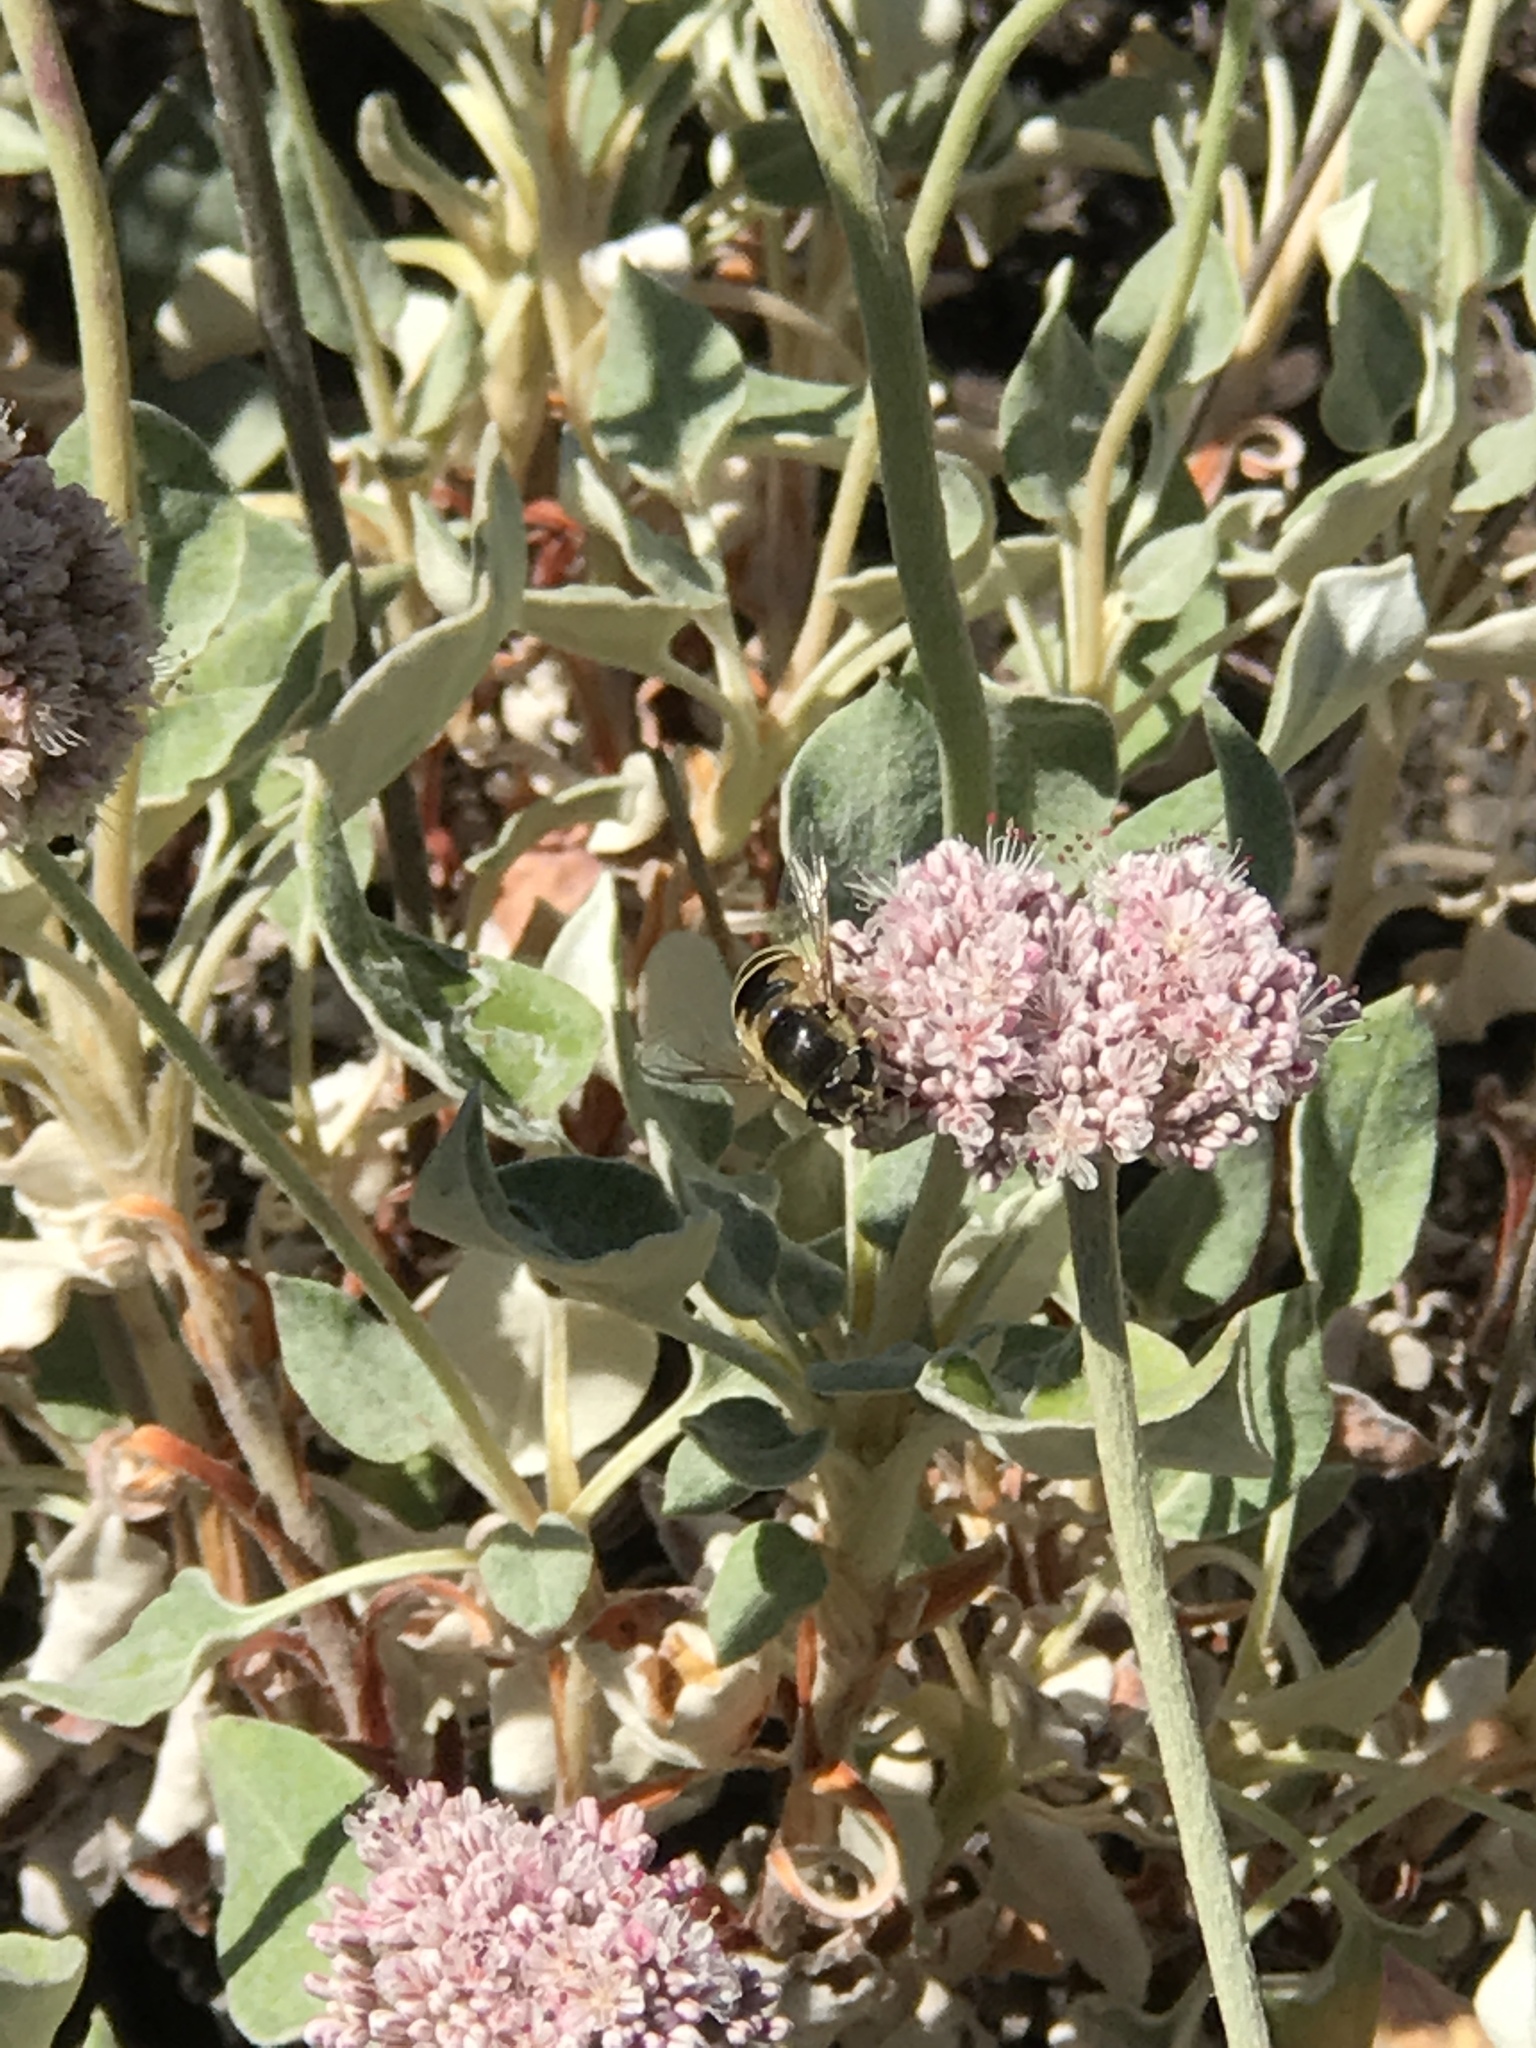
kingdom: Animalia
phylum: Arthropoda
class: Insecta
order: Diptera
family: Syrphidae
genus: Eristalis
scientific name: Eristalis hirta
